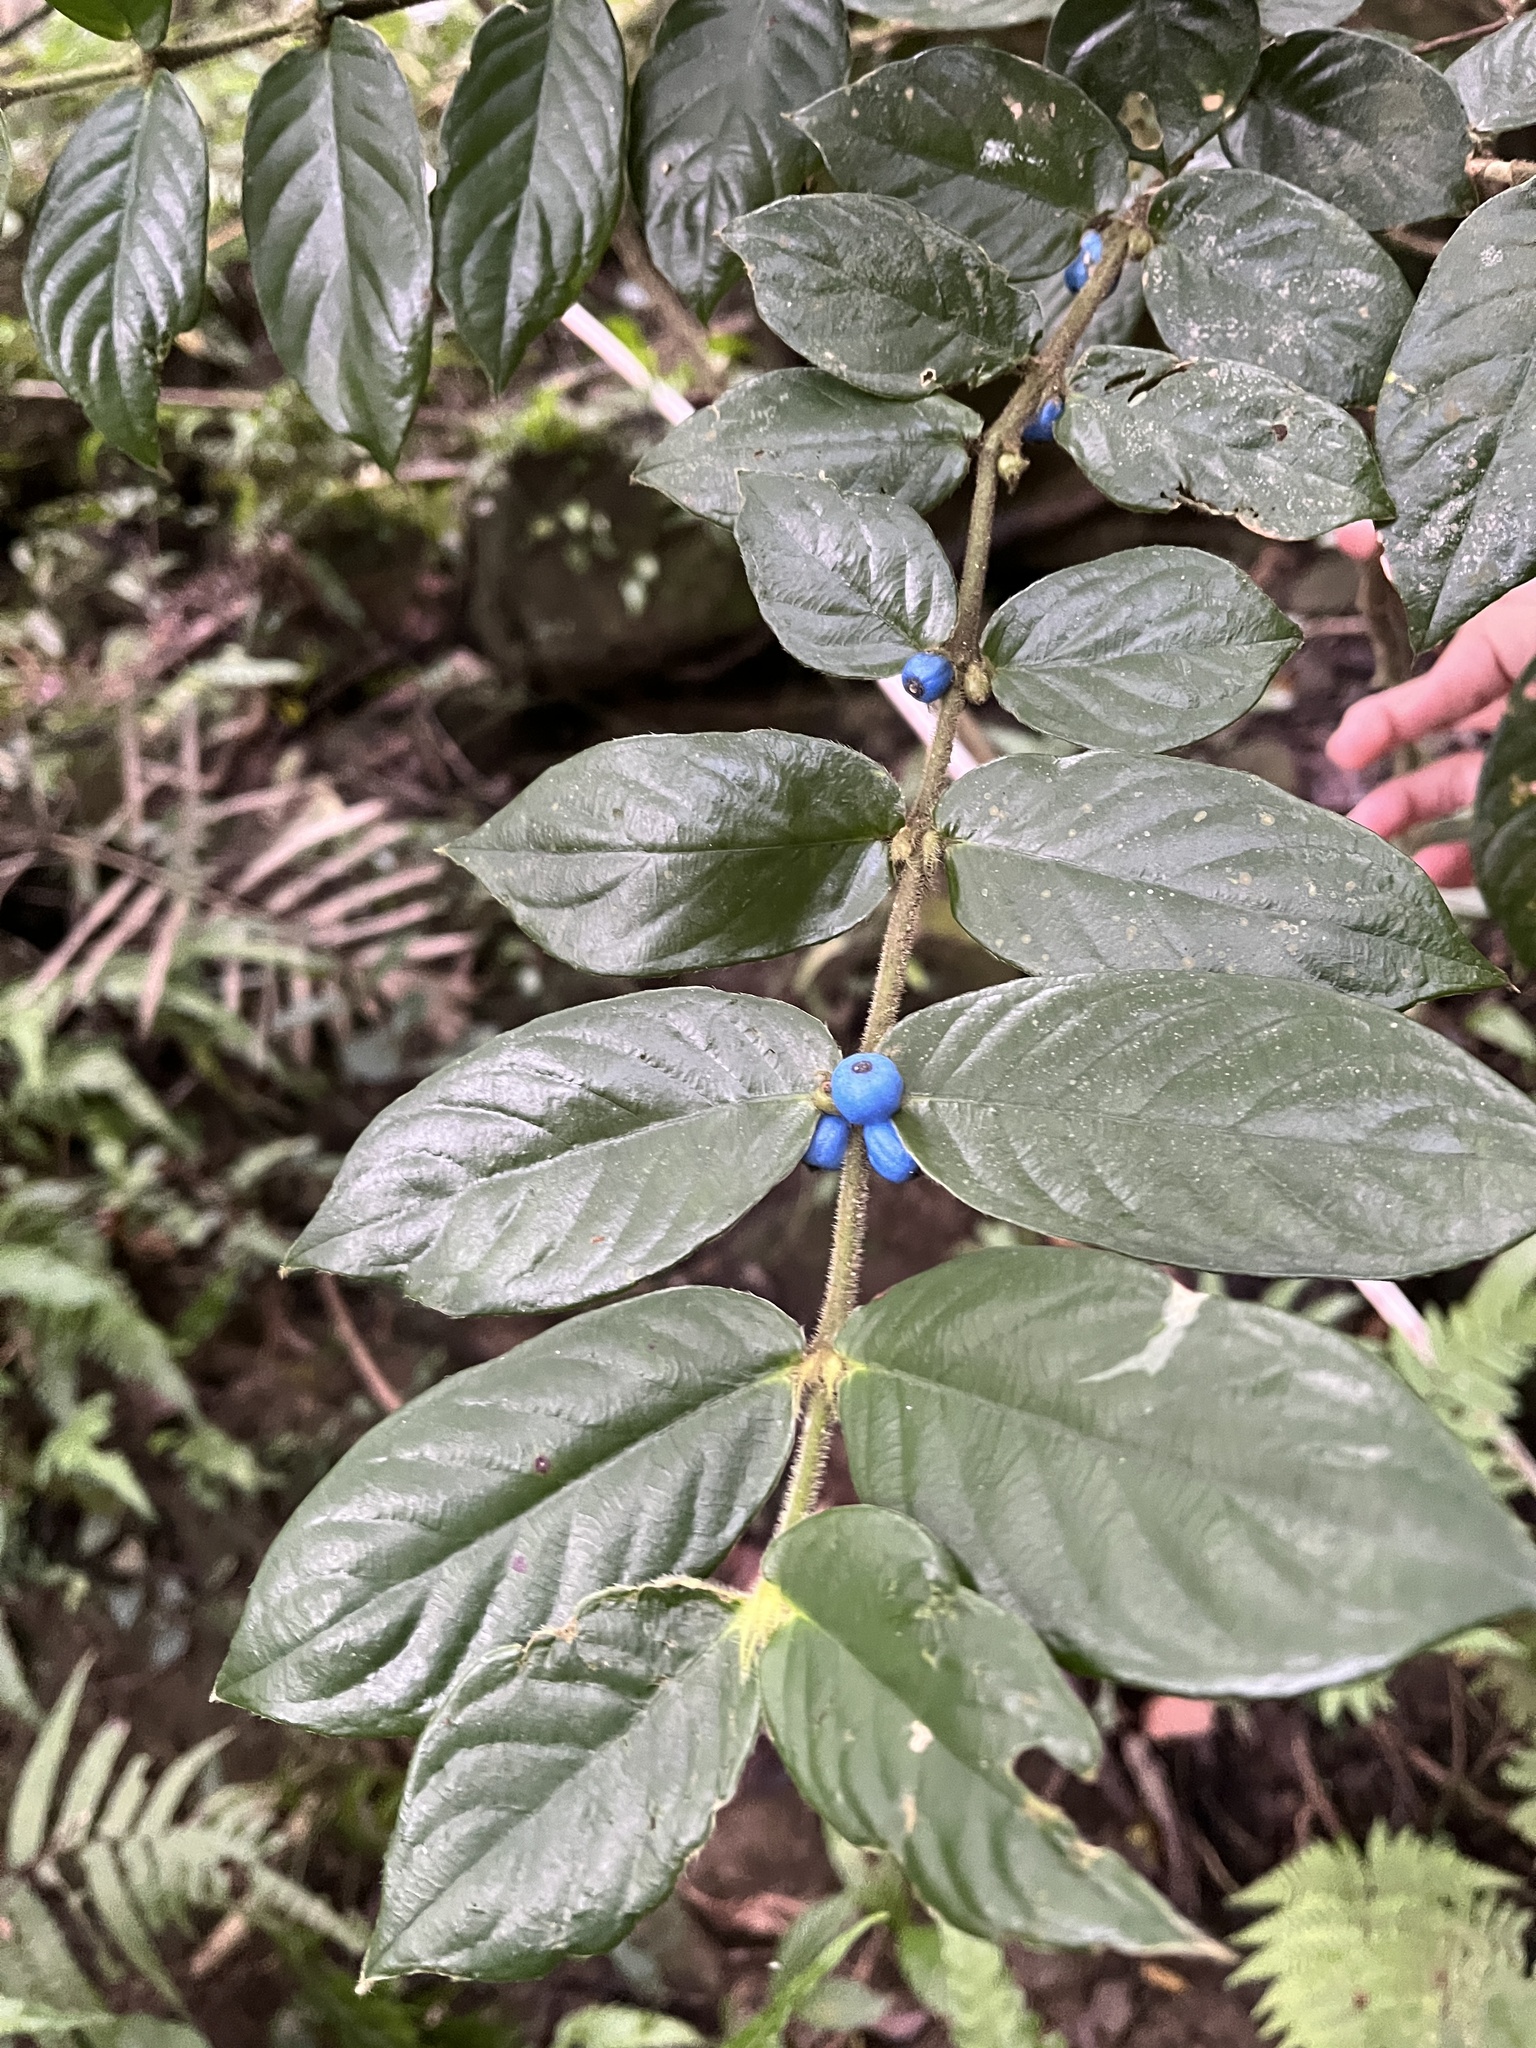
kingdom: Plantae
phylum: Tracheophyta
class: Magnoliopsida
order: Gentianales
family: Rubiaceae
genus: Lasianthus
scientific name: Lasianthus attenuatus
